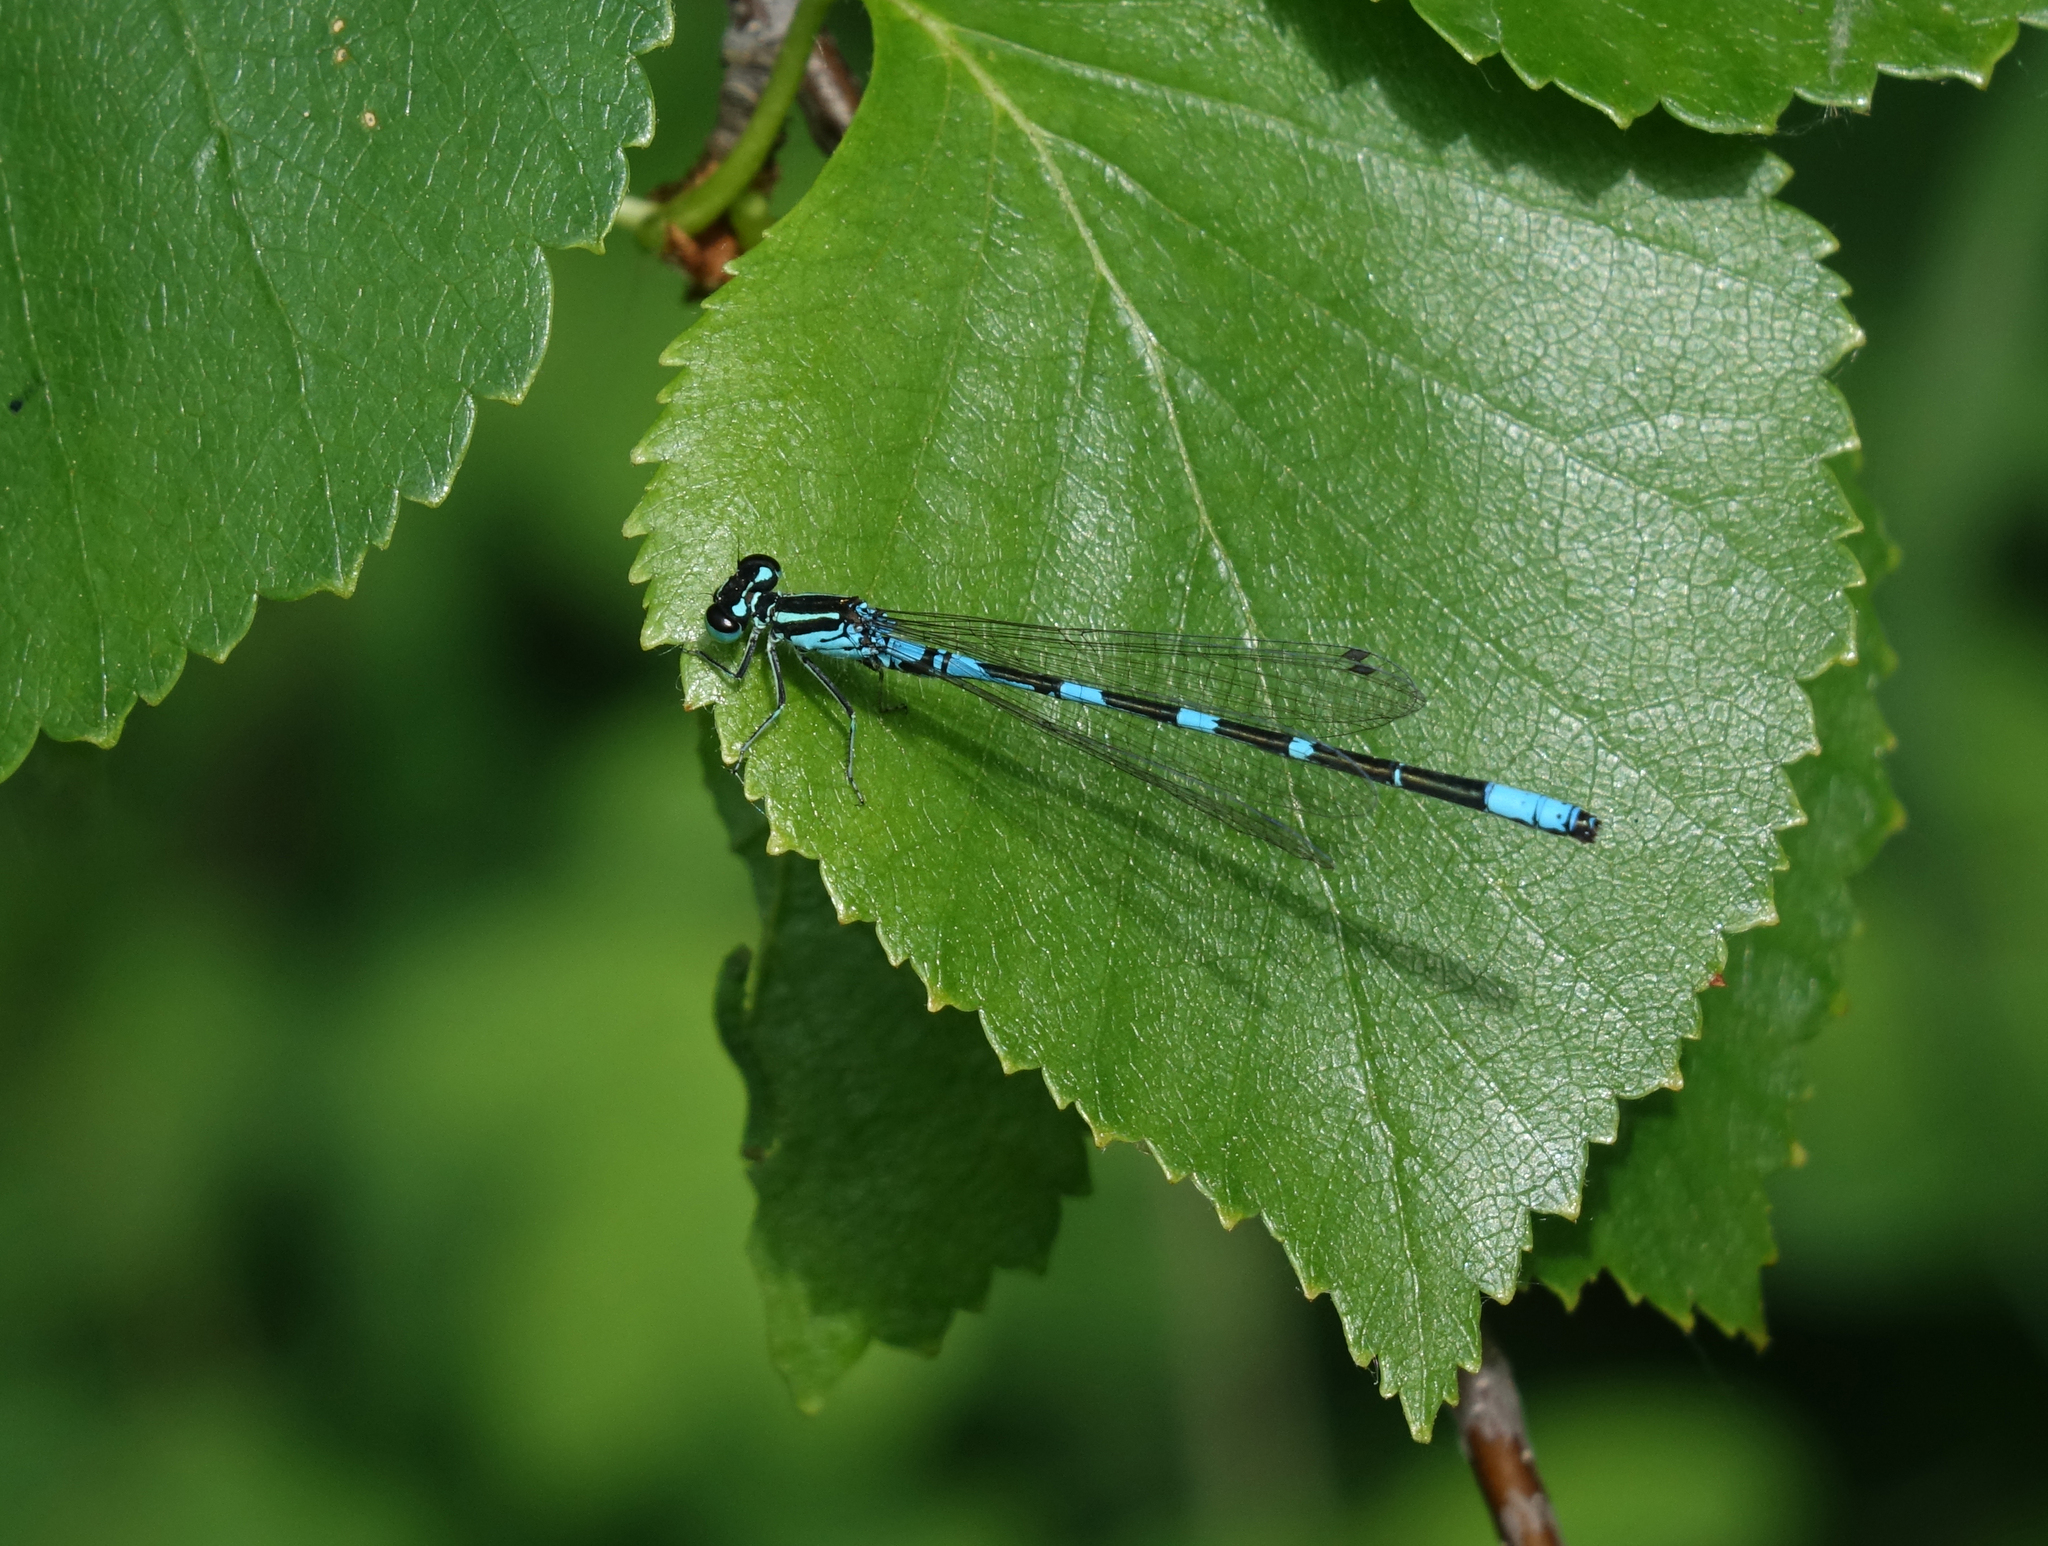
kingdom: Animalia
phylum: Arthropoda
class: Insecta
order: Odonata
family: Coenagrionidae
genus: Coenagrion
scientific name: Coenagrion johanssoni
